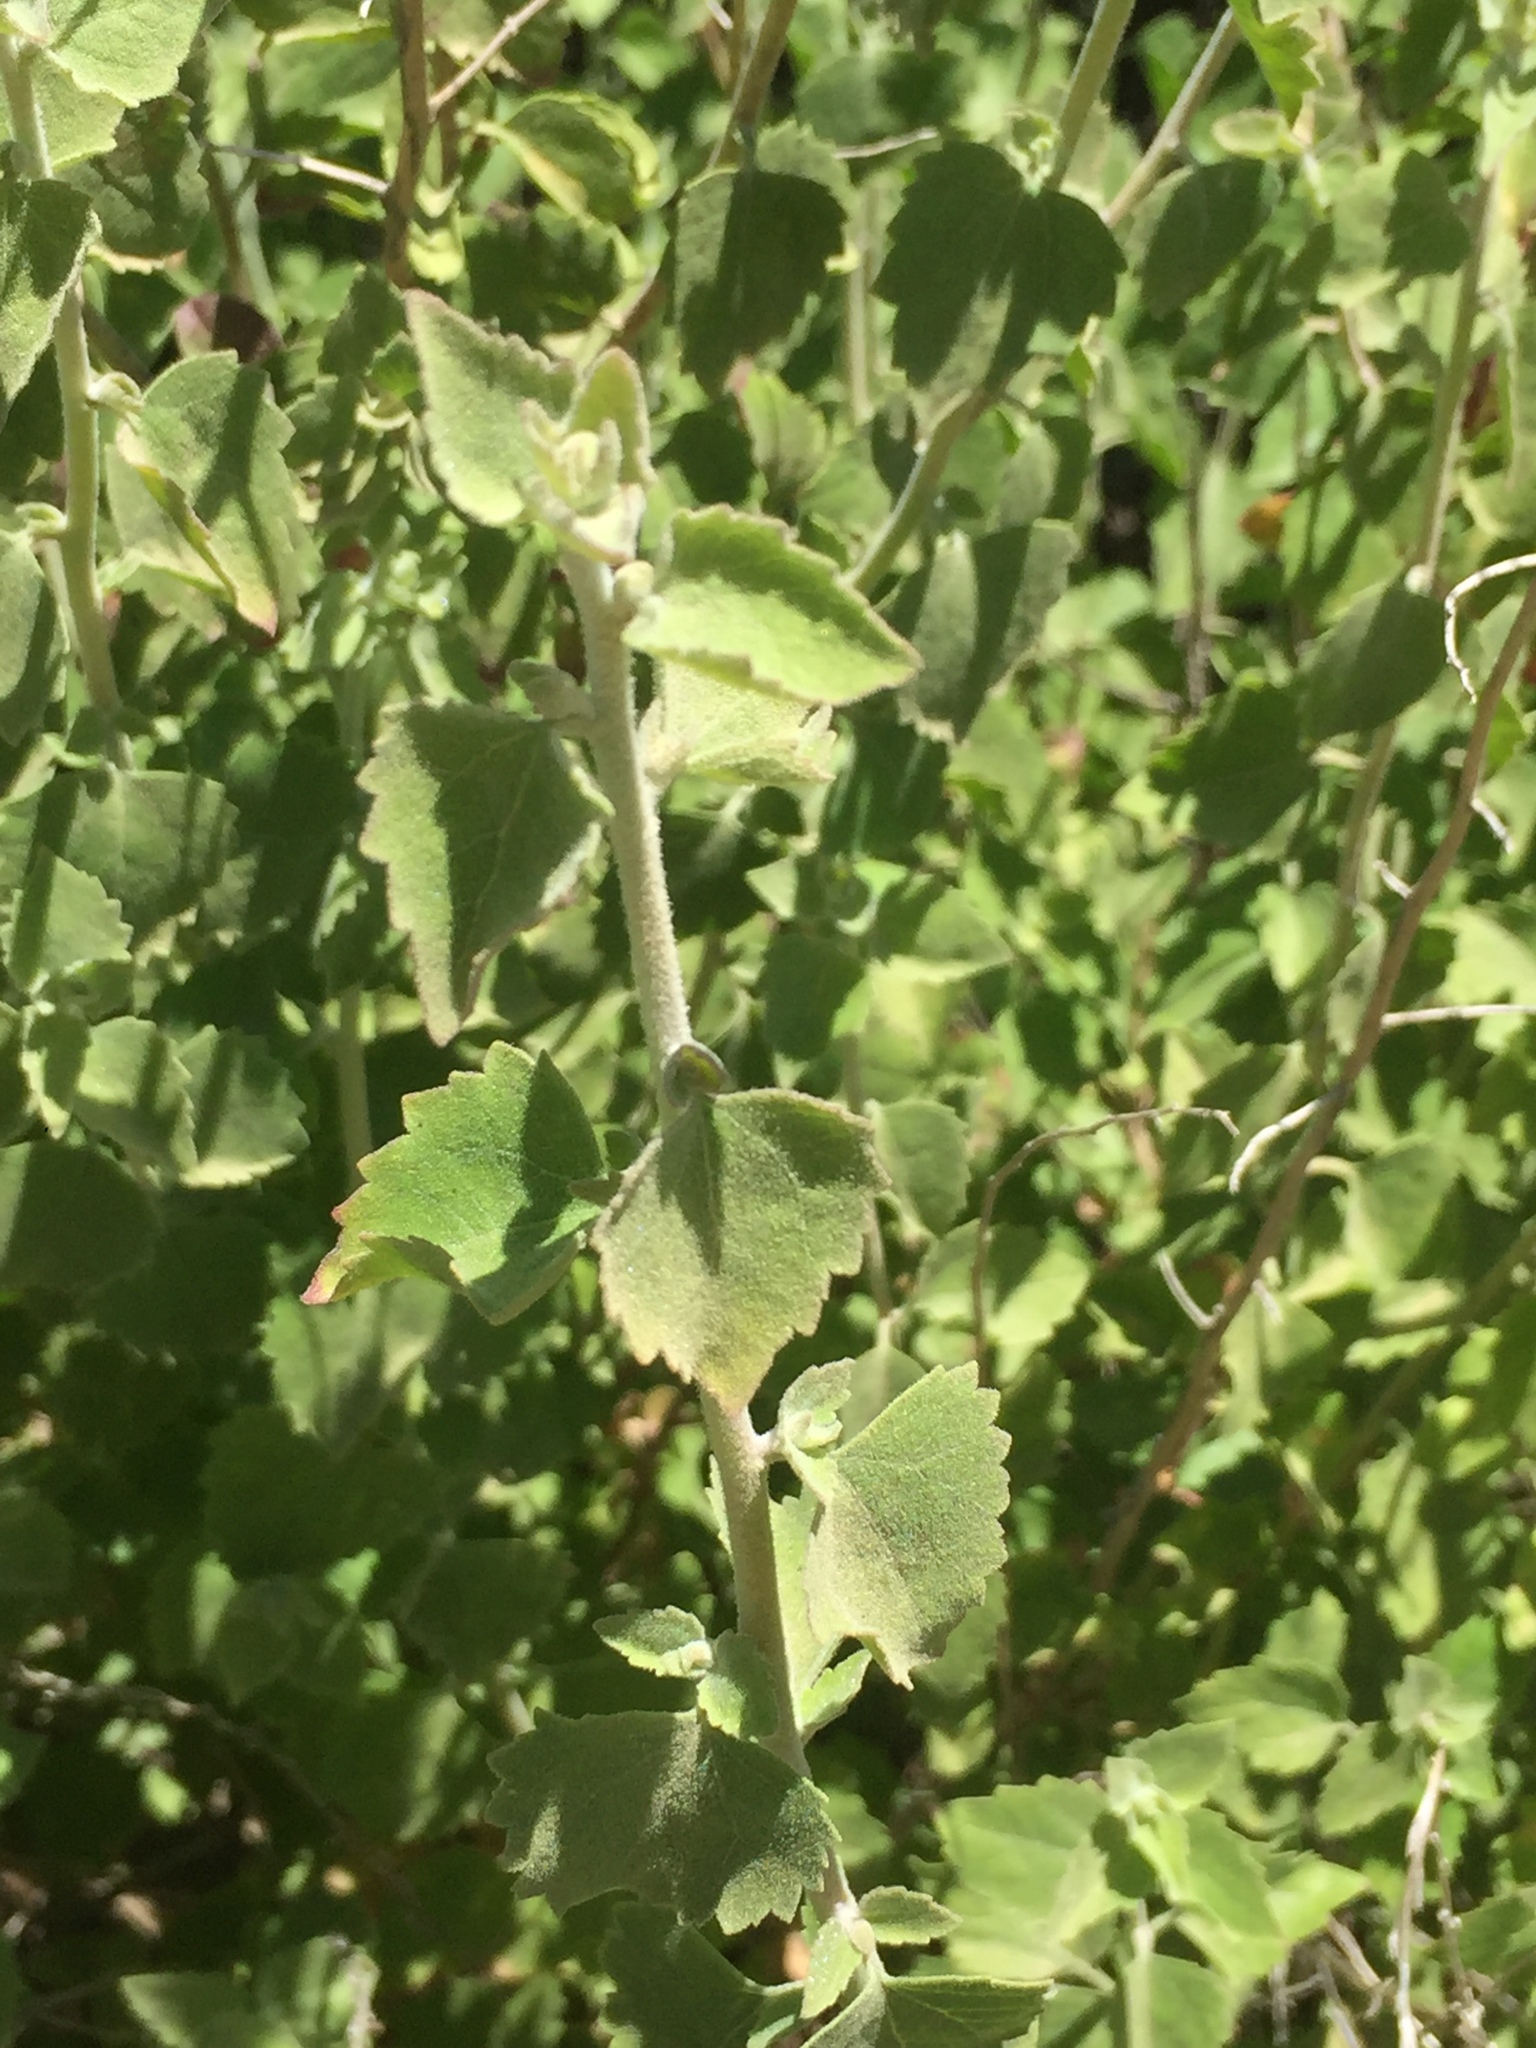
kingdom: Plantae
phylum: Tracheophyta
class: Magnoliopsida
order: Asterales
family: Asteraceae
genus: Brickellia
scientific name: Brickellia californica
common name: California brickellbush
